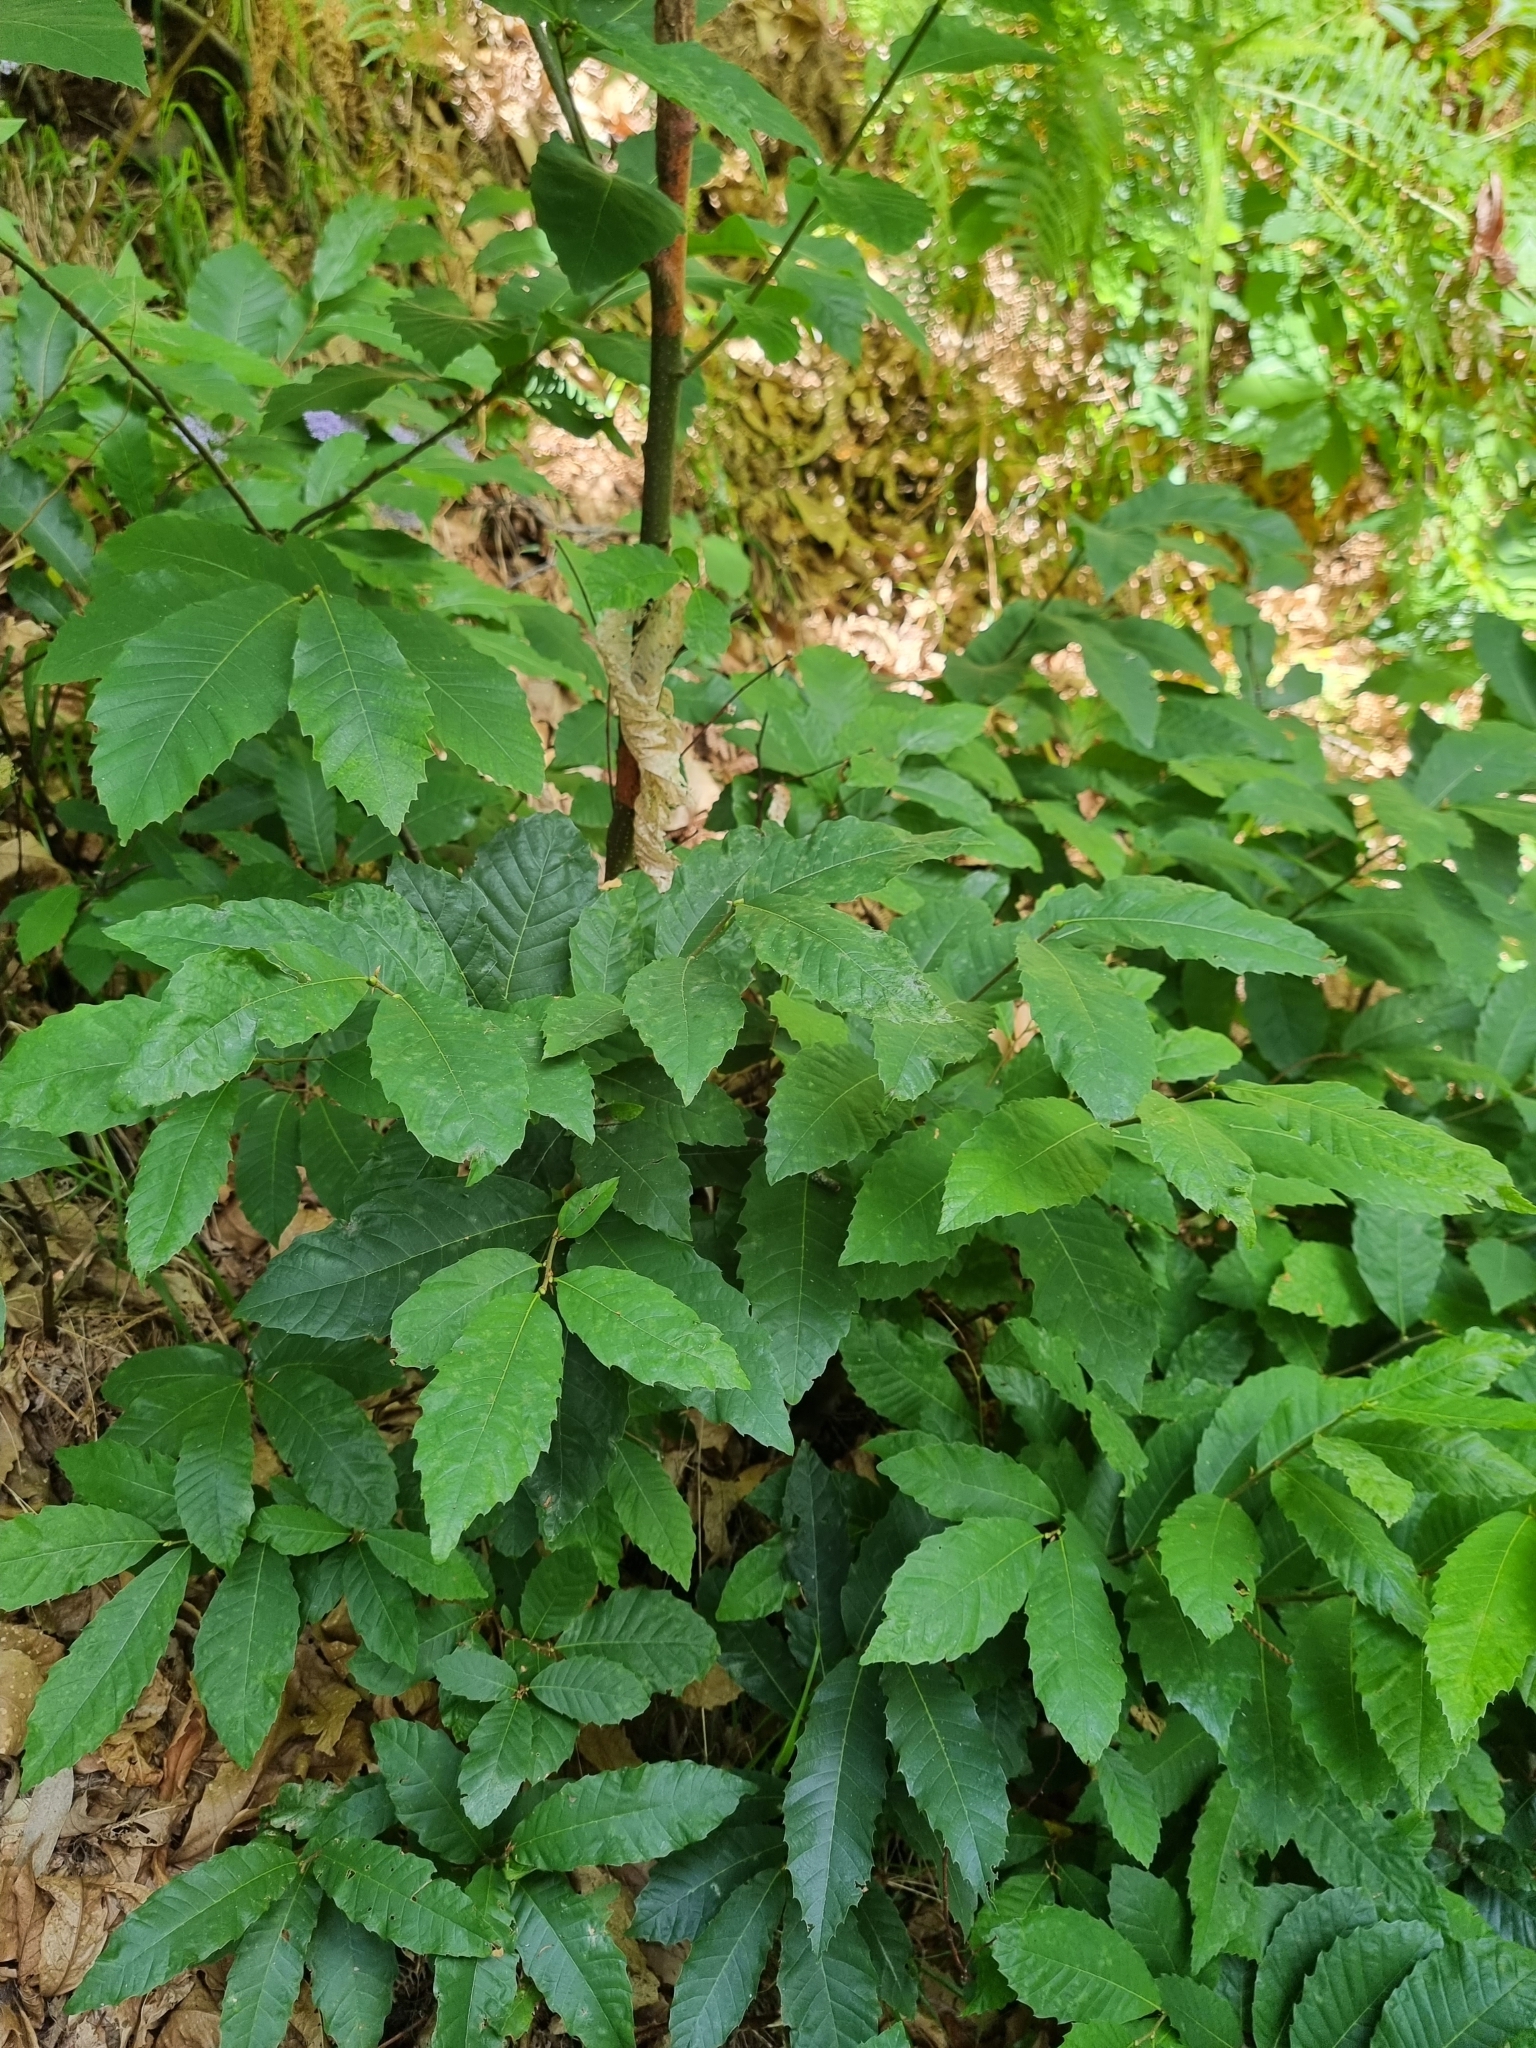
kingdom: Plantae
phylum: Tracheophyta
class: Magnoliopsida
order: Fagales
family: Fagaceae
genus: Castanea
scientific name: Castanea sativa
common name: Sweet chestnut
